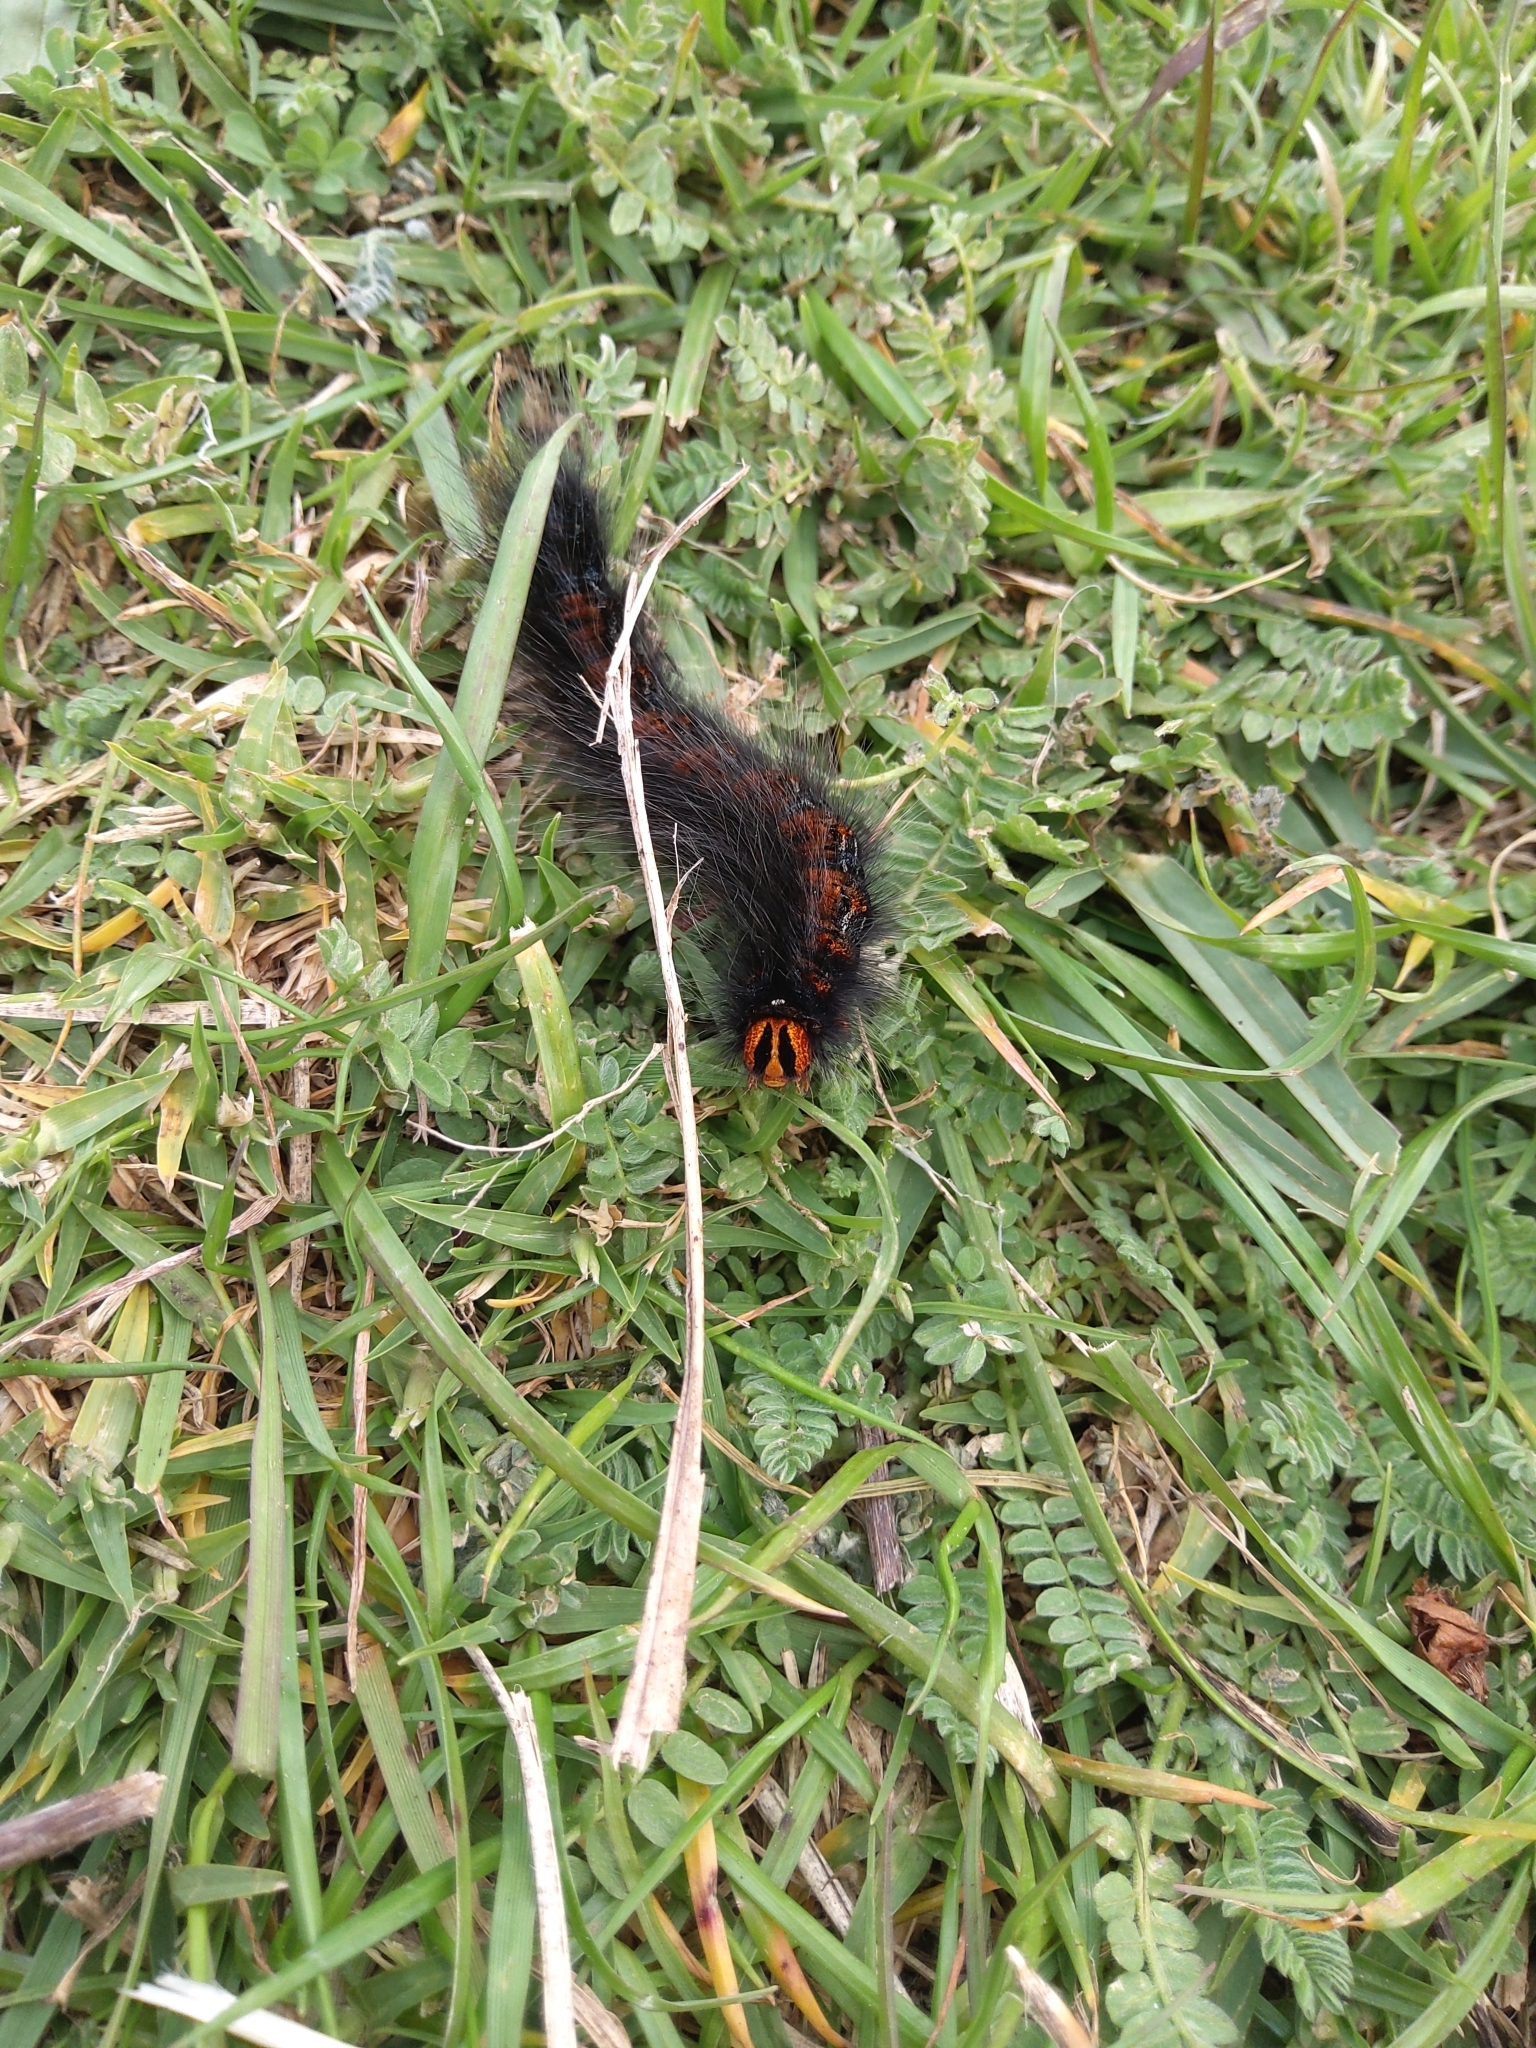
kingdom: Animalia
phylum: Arthropoda
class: Insecta
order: Lepidoptera
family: Lasiocampidae
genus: Mesocelis
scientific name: Mesocelis monticola
